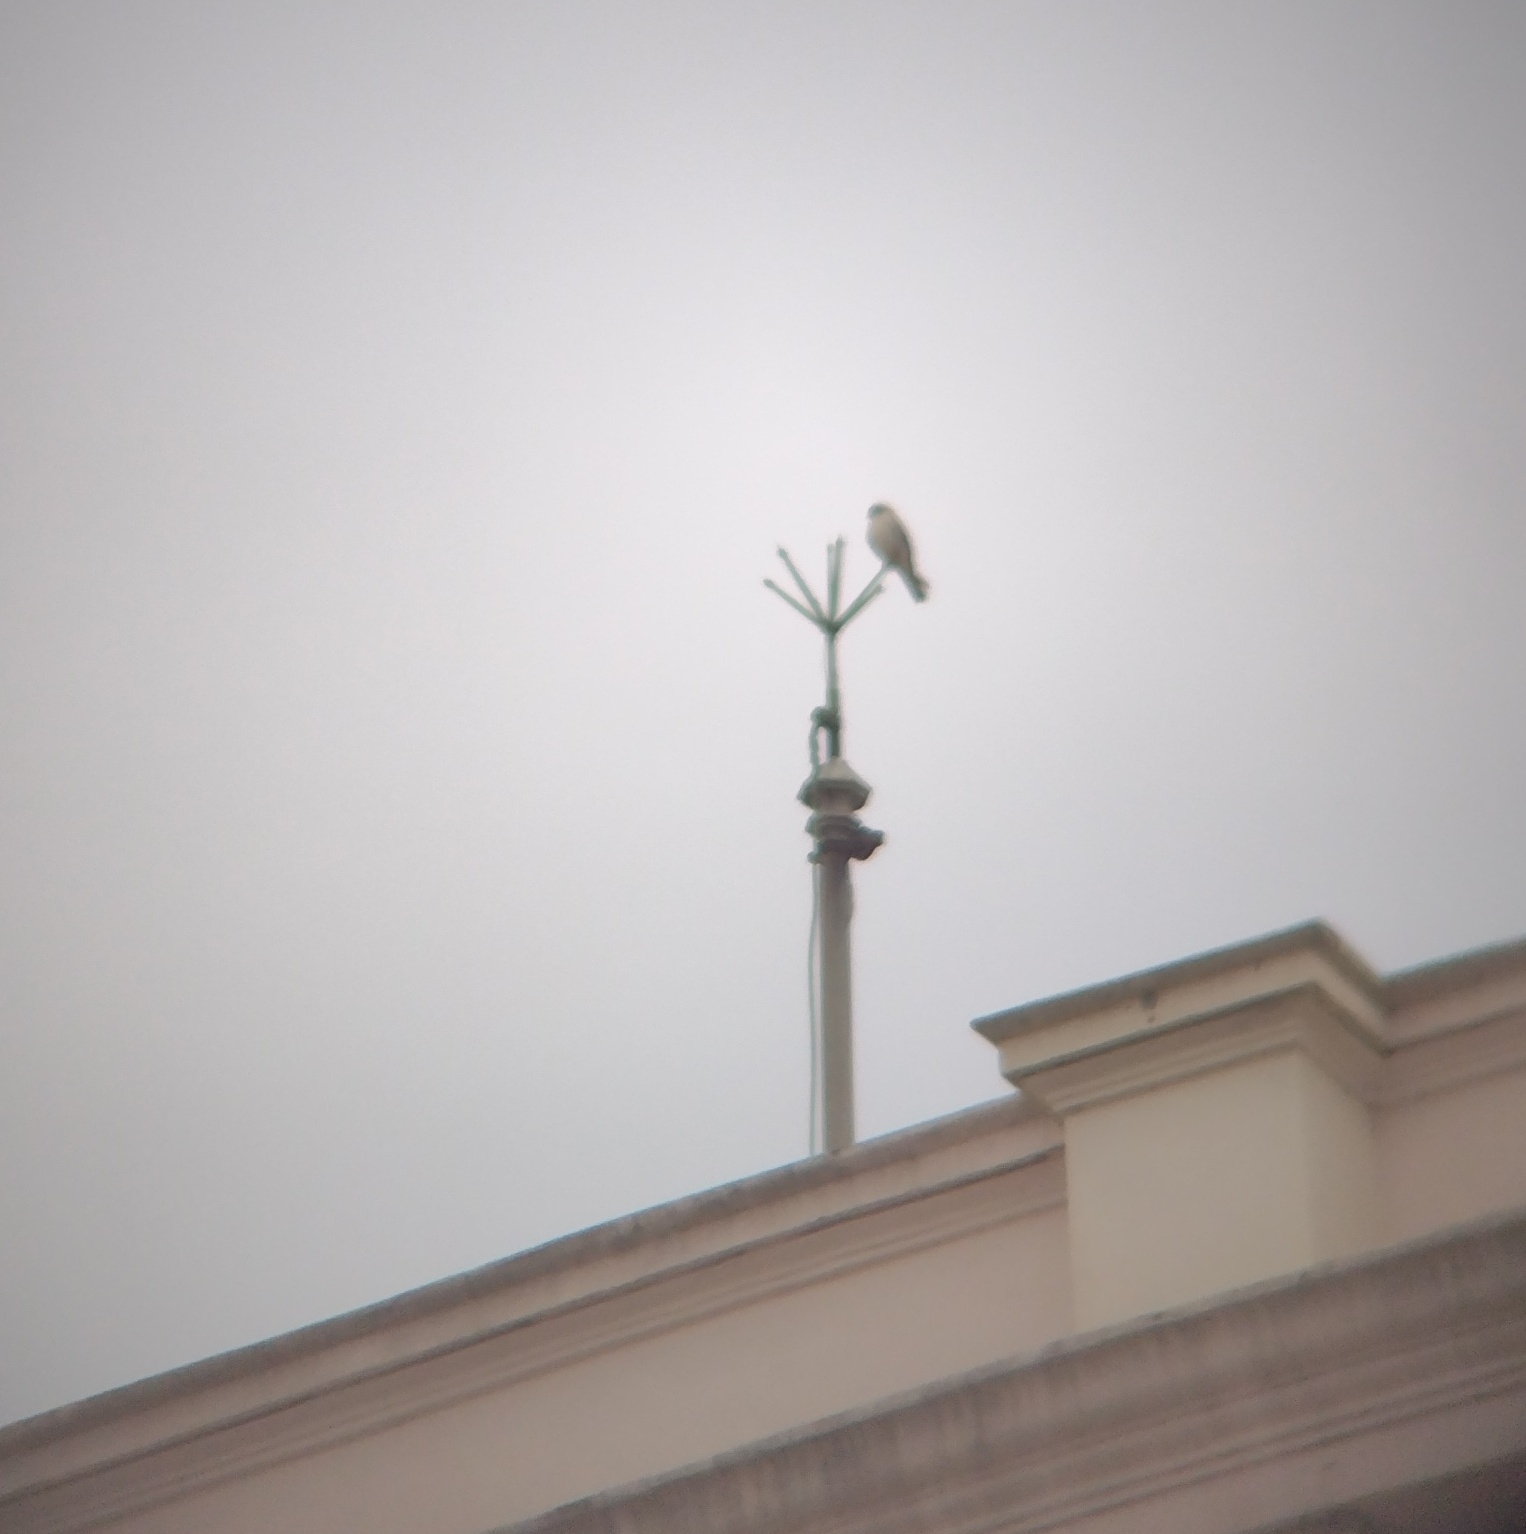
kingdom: Animalia
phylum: Chordata
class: Aves
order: Falconiformes
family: Falconidae
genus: Falco
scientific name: Falco sparverius
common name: American kestrel
